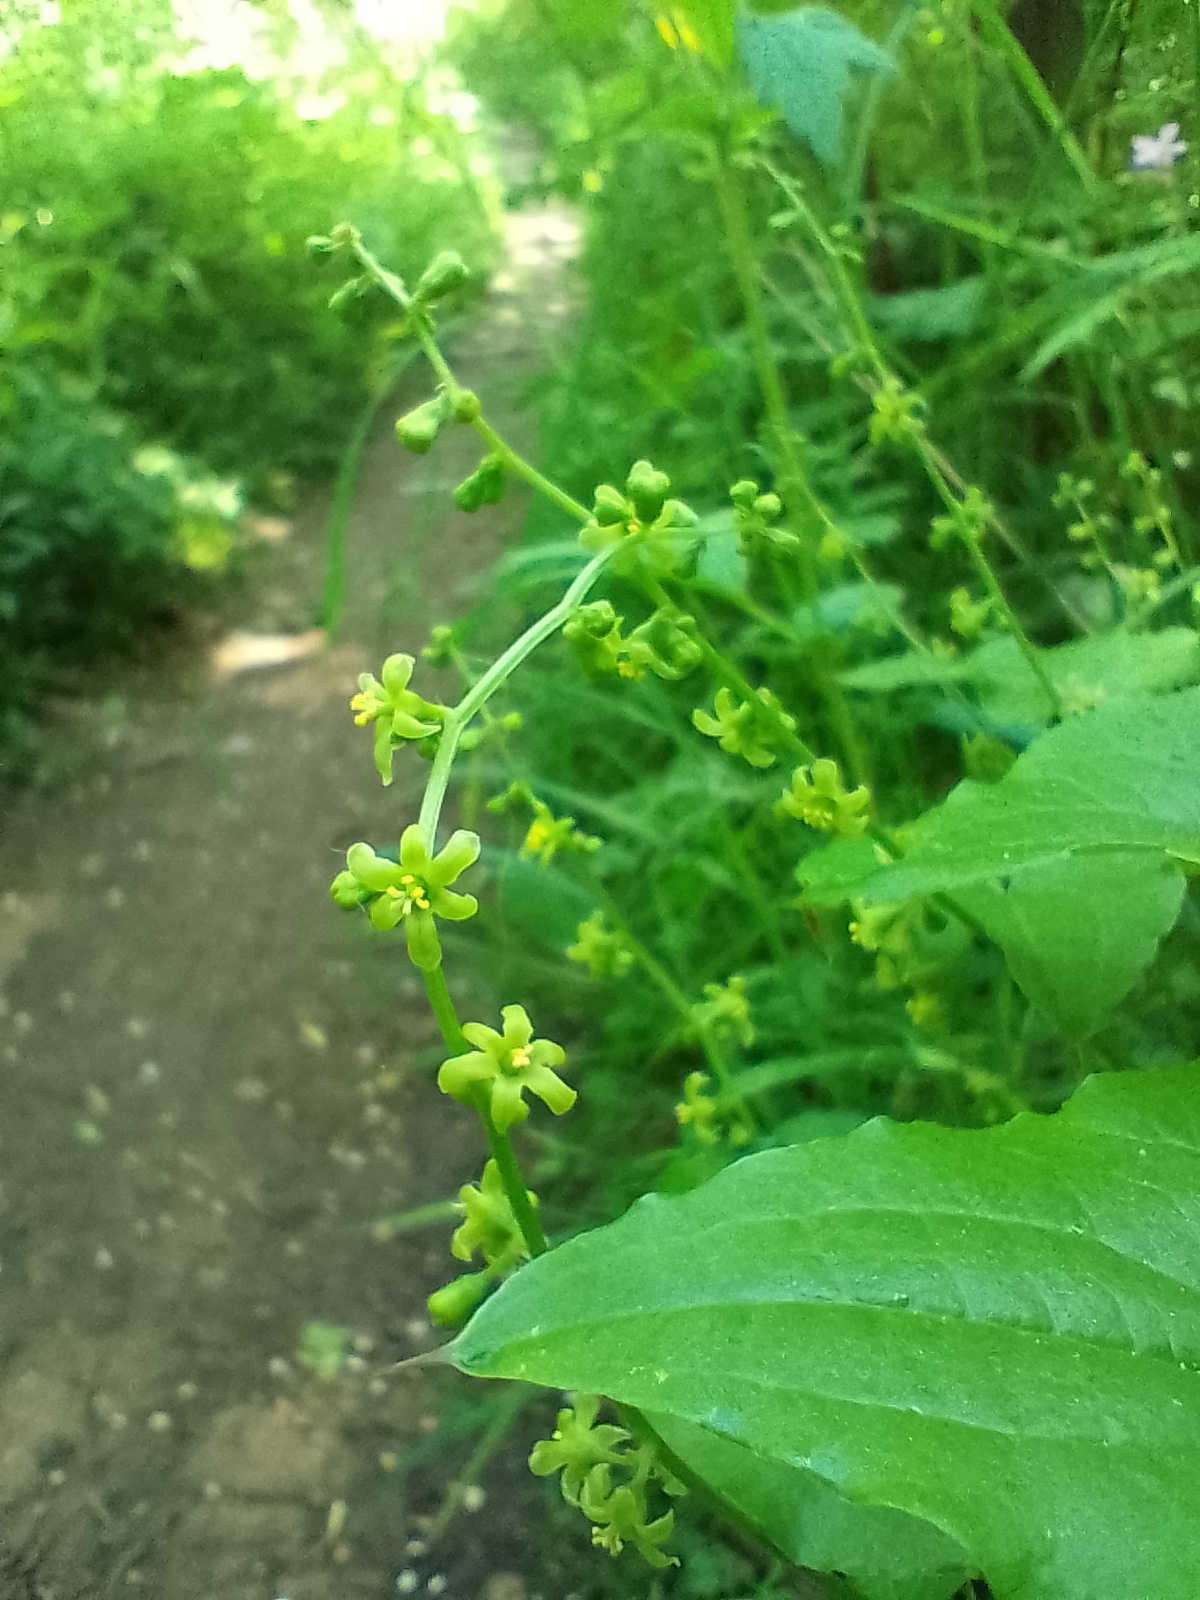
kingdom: Plantae
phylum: Tracheophyta
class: Liliopsida
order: Dioscoreales
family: Dioscoreaceae
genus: Dioscorea
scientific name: Dioscorea communis
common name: Black-bindweed
